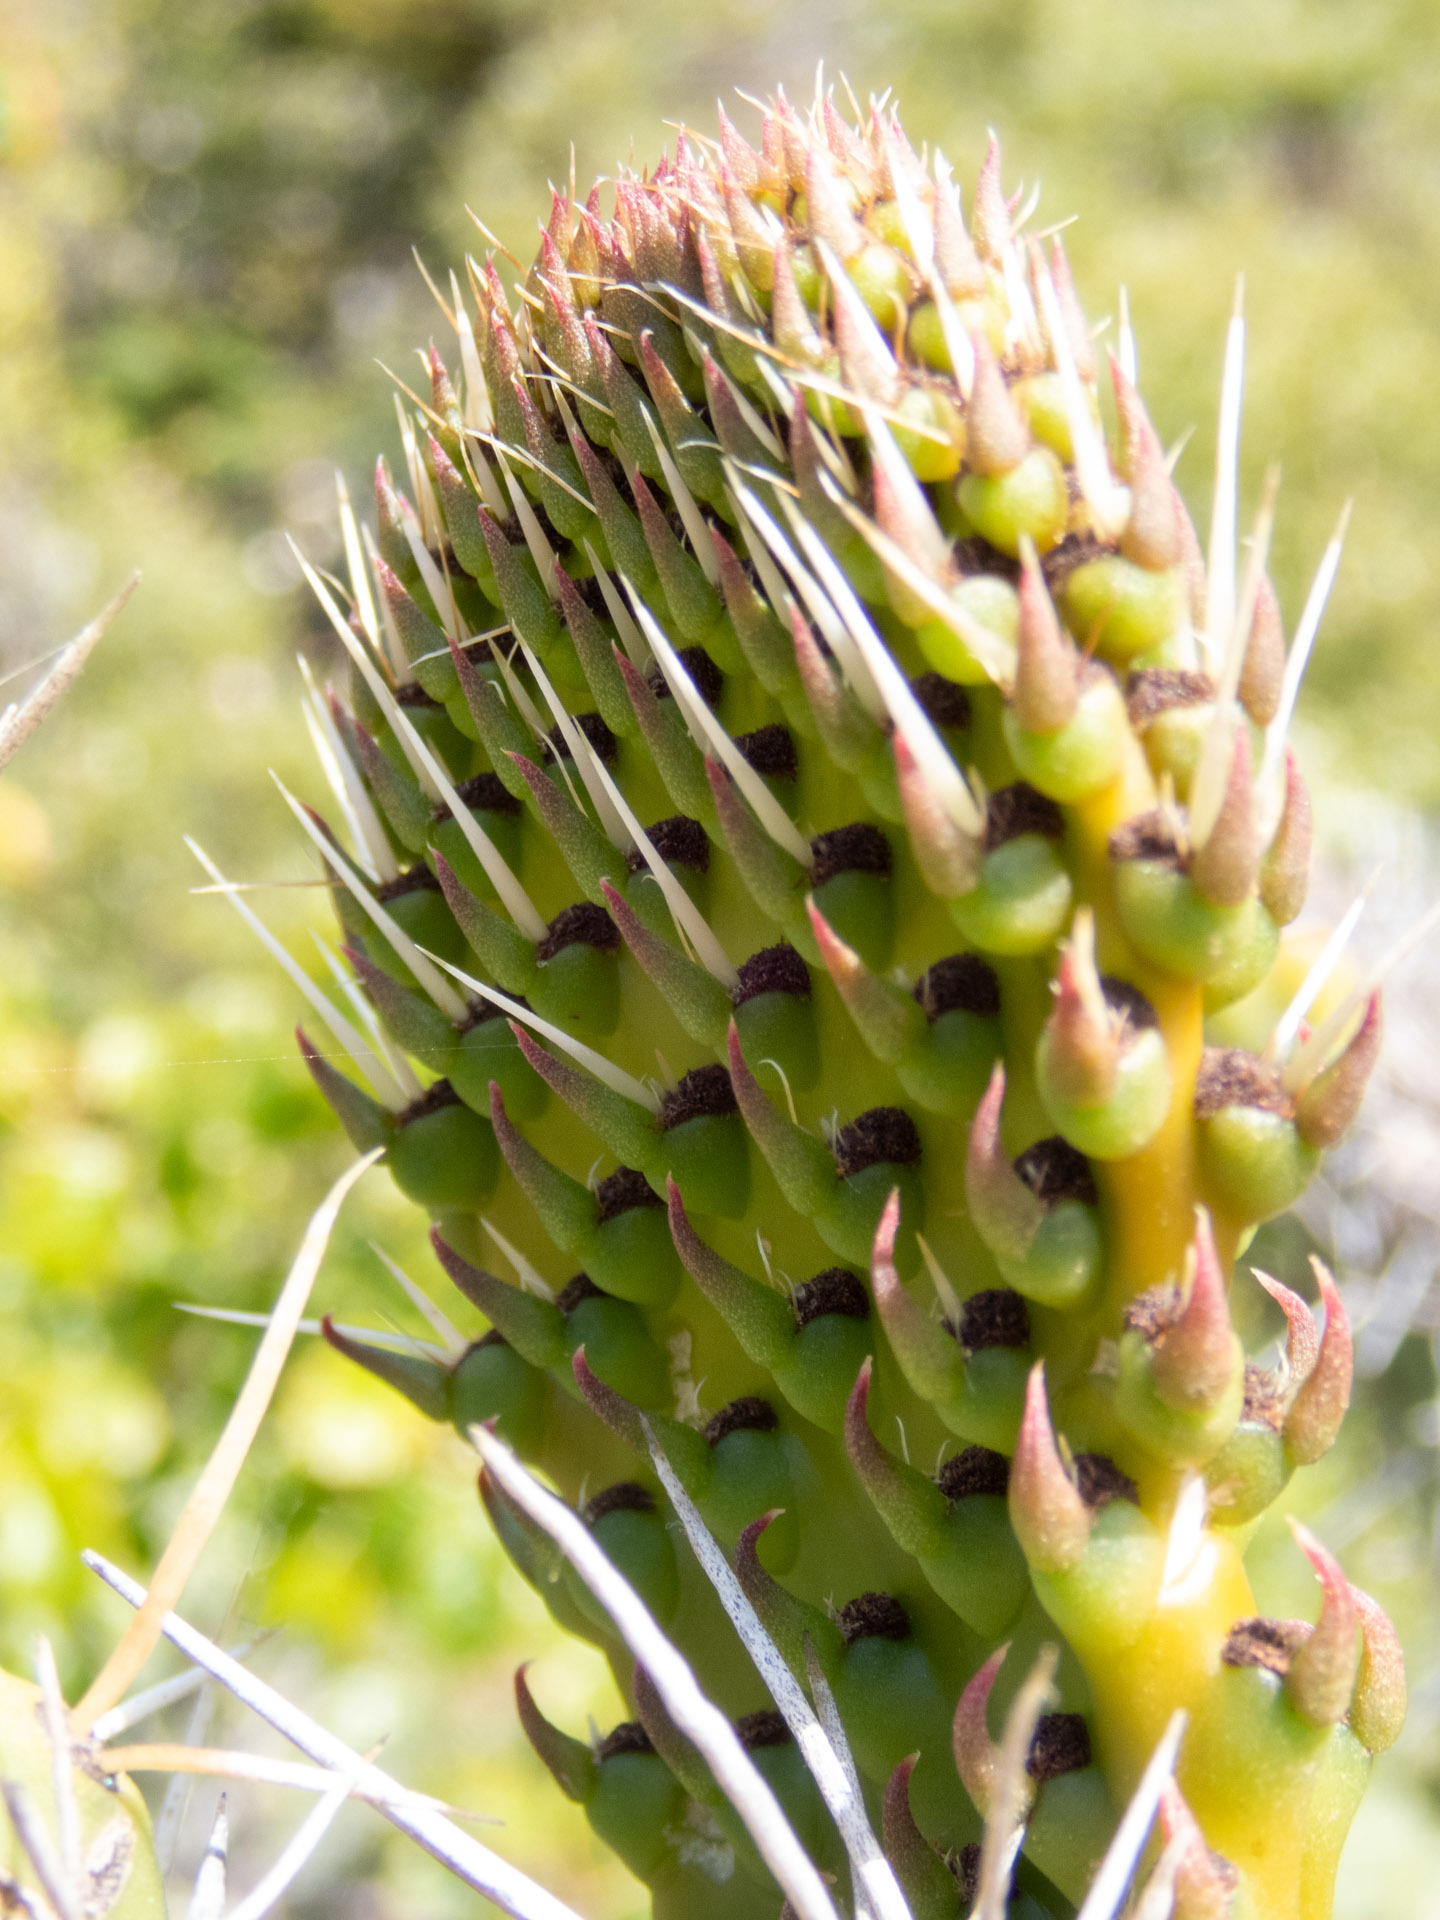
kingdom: Plantae
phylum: Tracheophyta
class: Magnoliopsida
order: Caryophyllales
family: Cactaceae
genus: Opuntia
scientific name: Opuntia ficus-indica
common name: Barbary fig
